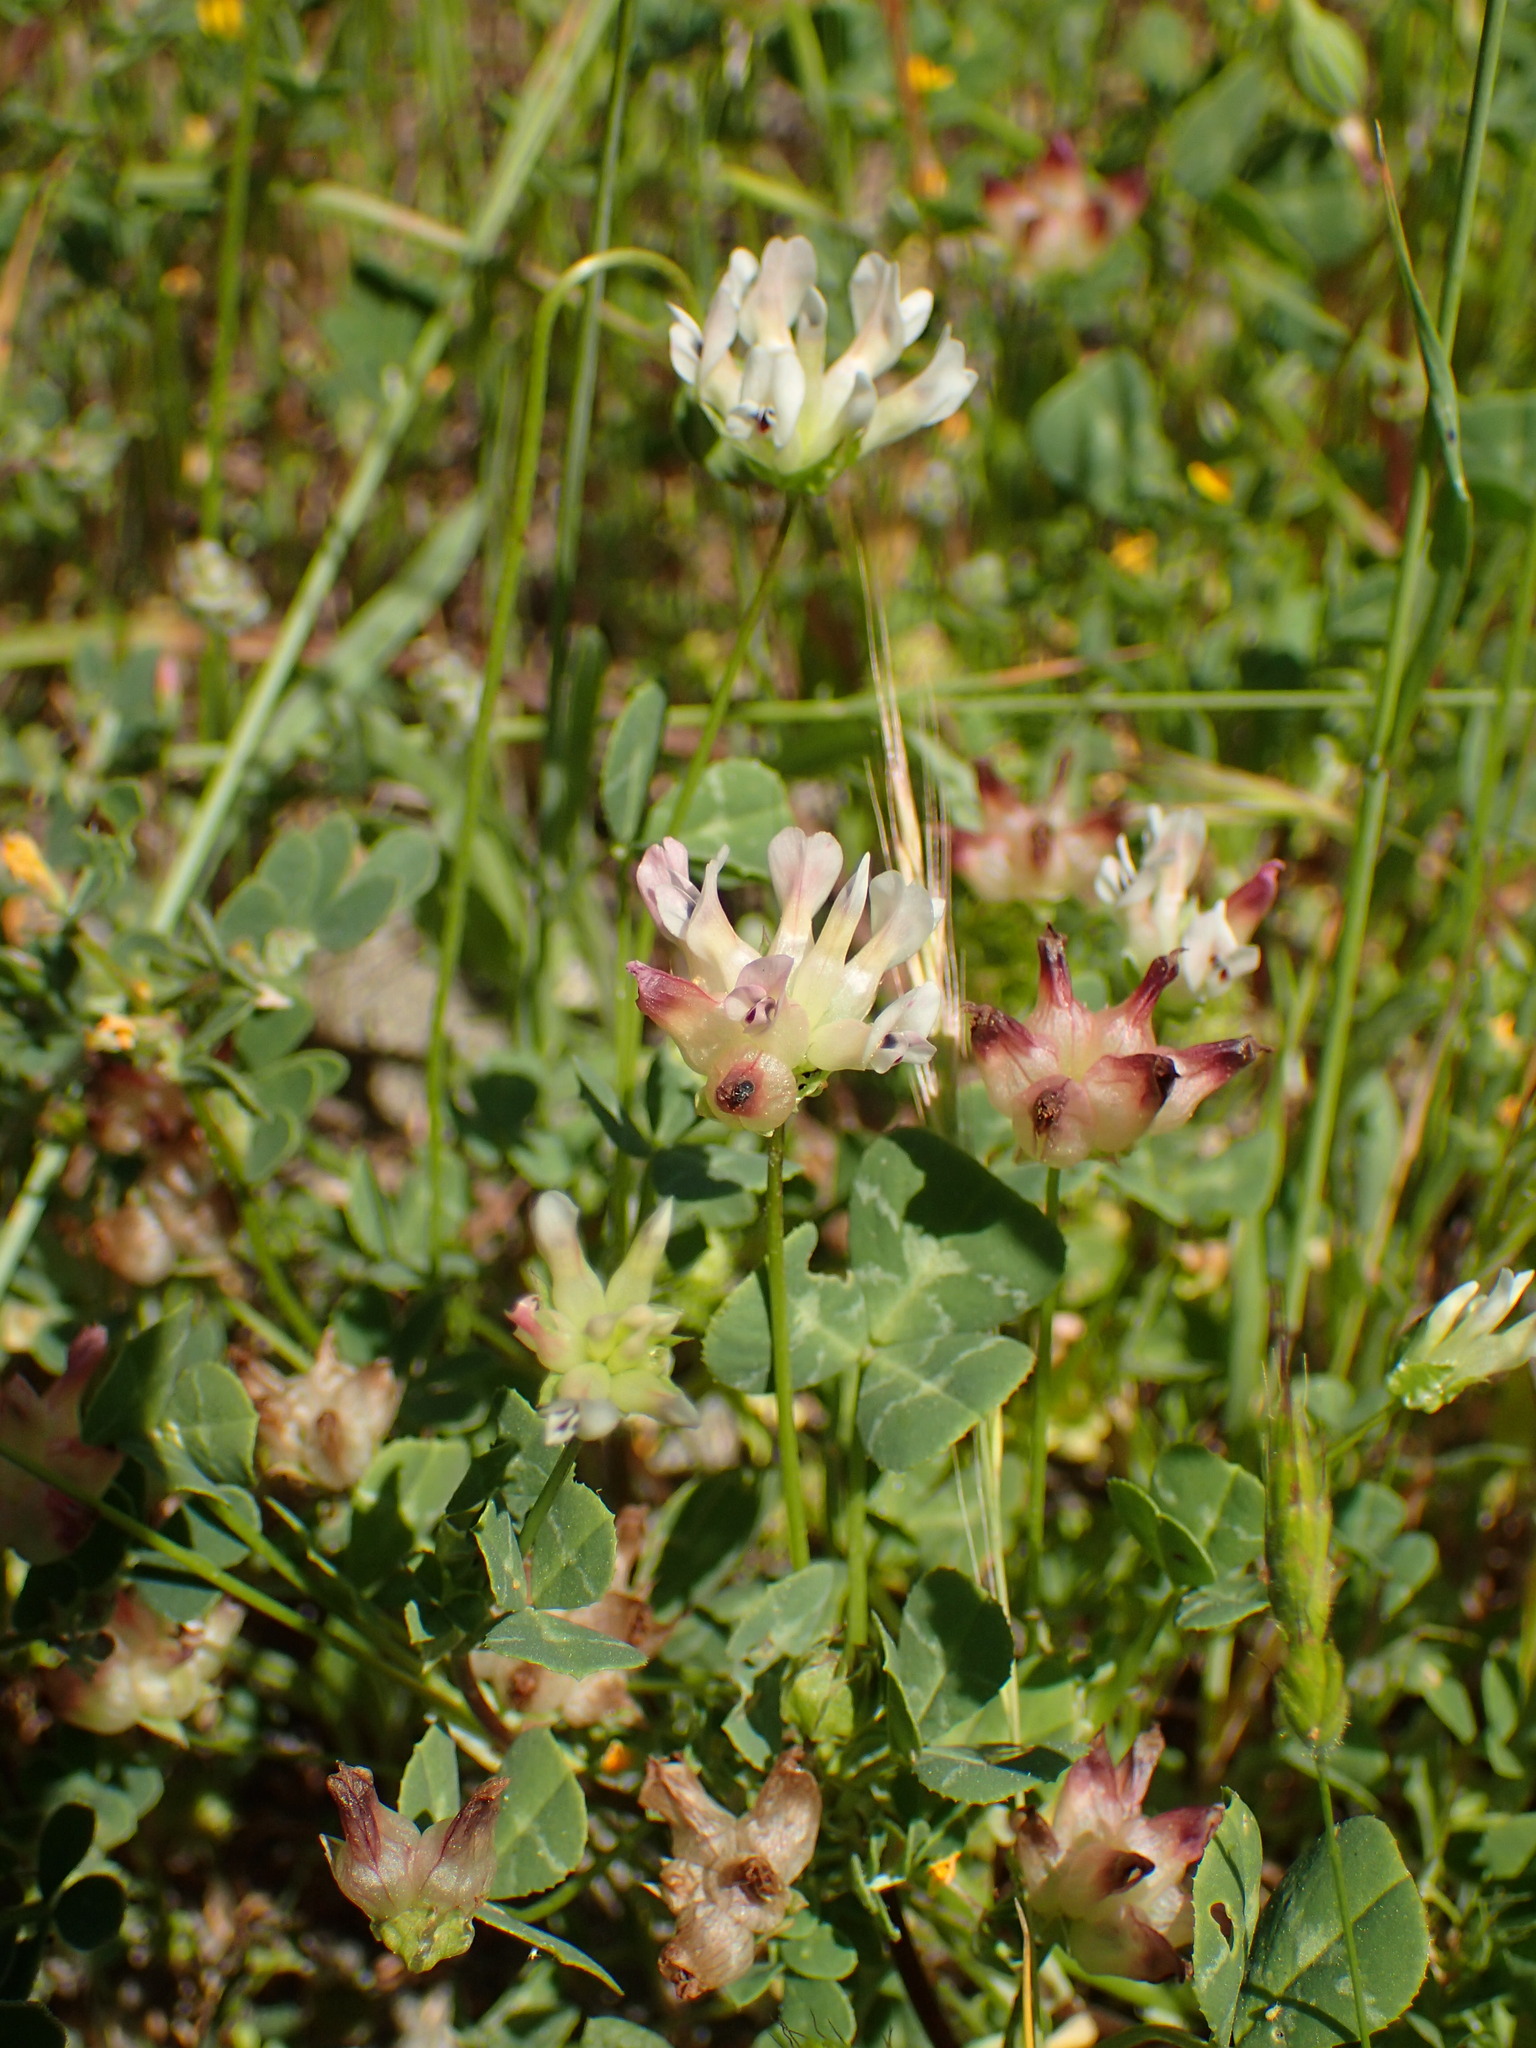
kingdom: Plantae
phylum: Tracheophyta
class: Magnoliopsida
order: Fabales
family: Fabaceae
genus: Trifolium
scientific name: Trifolium fucatum
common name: Puff clover
